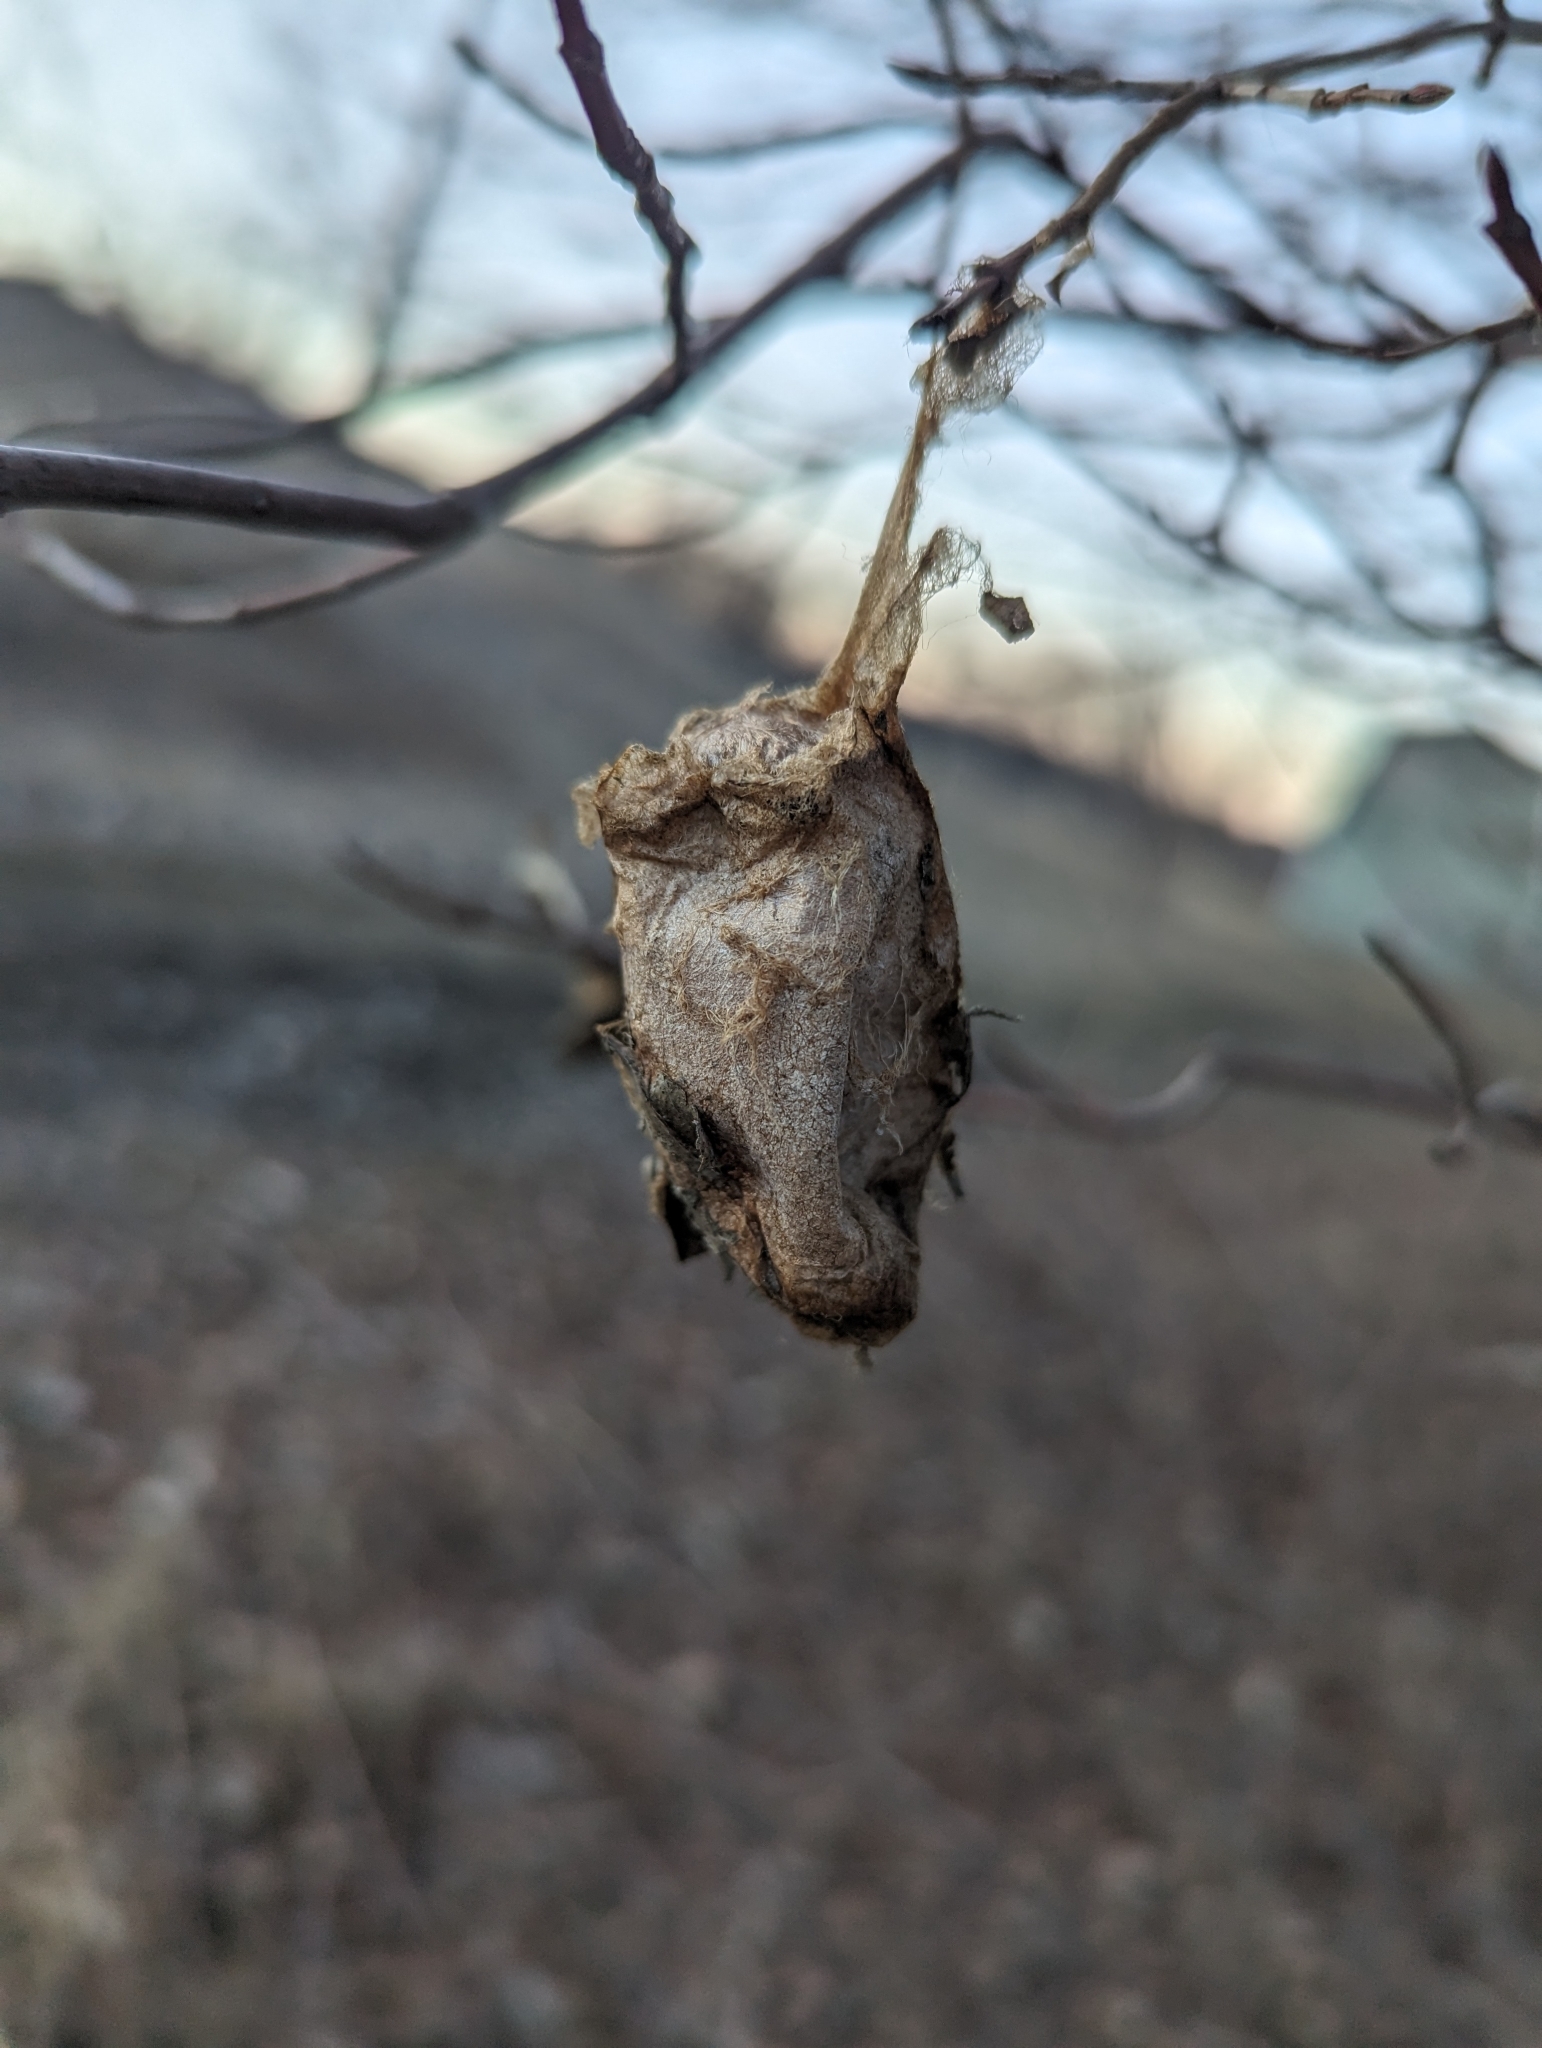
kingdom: Animalia
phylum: Arthropoda
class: Insecta
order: Lepidoptera
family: Saturniidae
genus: Antheraea
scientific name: Antheraea polyphemus
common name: Polyphemus moth
